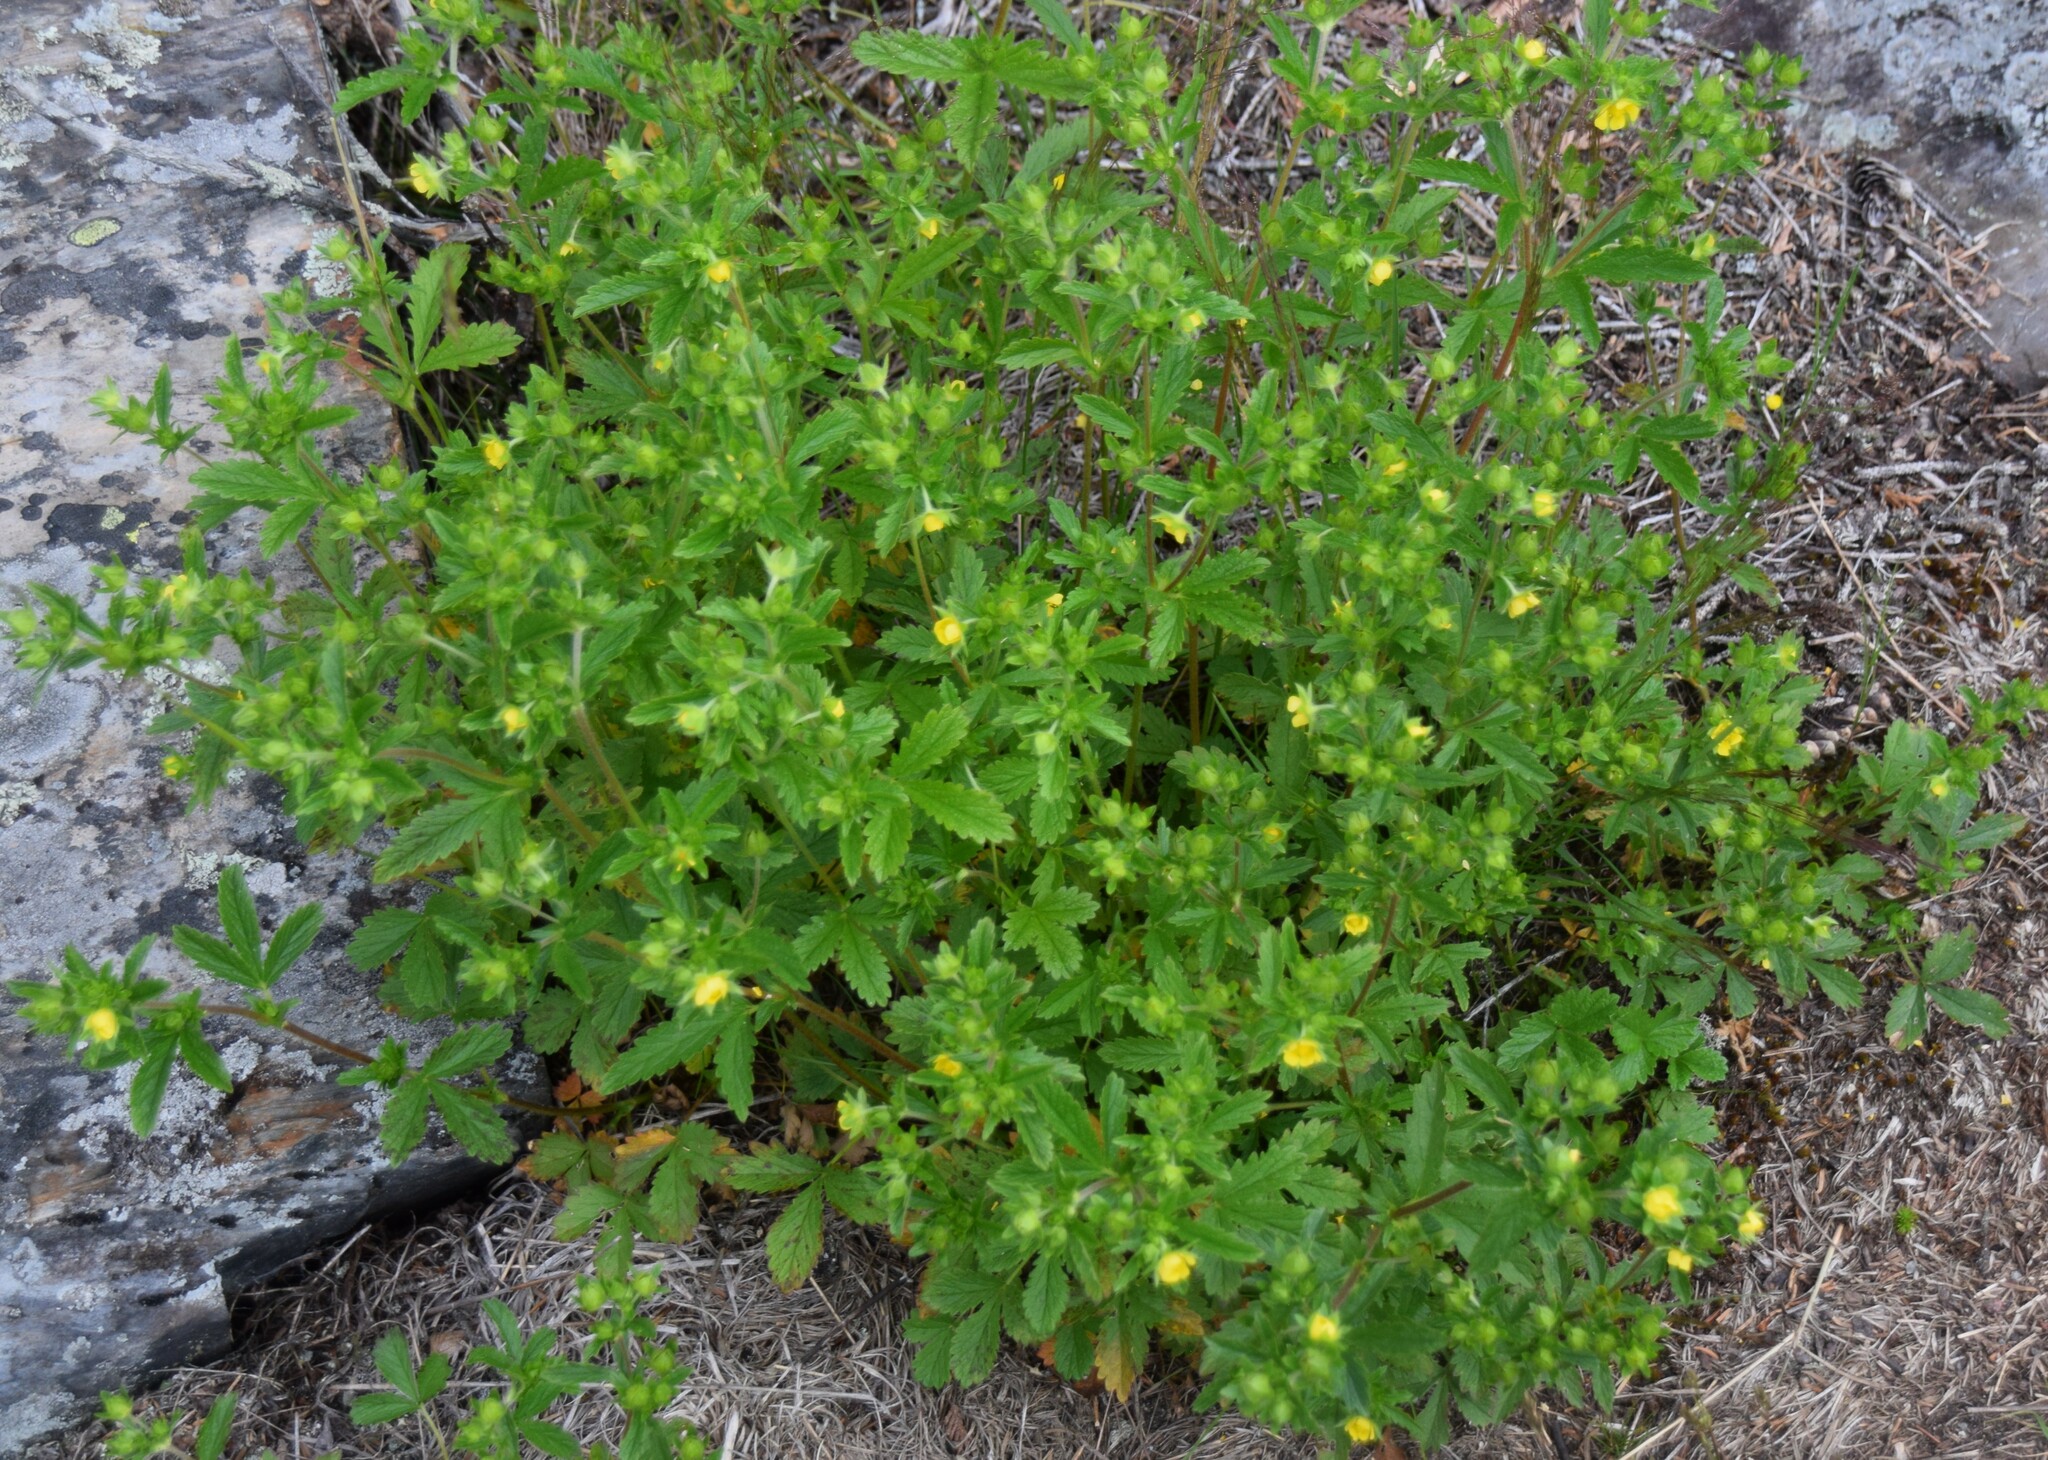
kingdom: Plantae
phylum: Tracheophyta
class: Magnoliopsida
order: Rosales
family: Rosaceae
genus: Potentilla
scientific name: Potentilla norvegica
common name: Ternate-leaved cinquefoil
